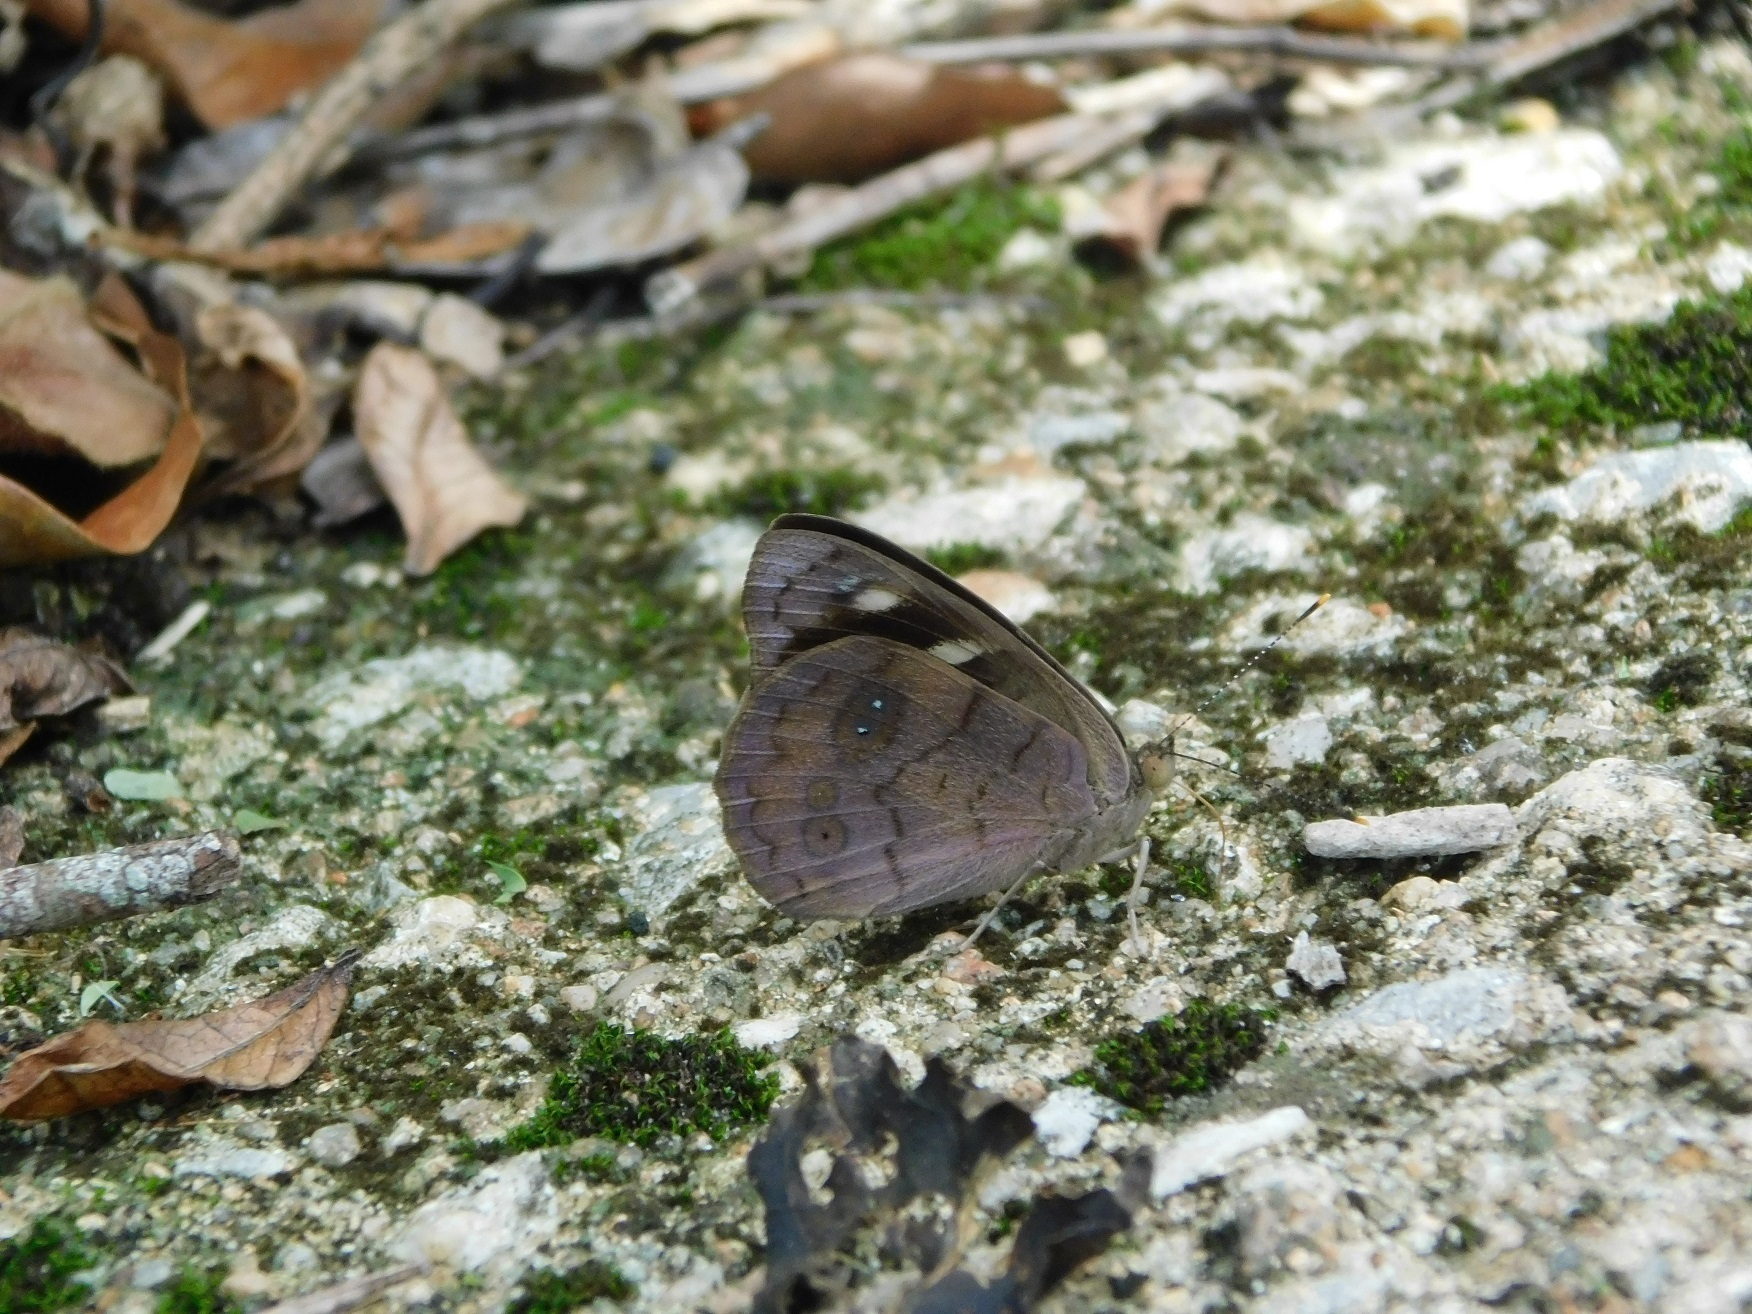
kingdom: Animalia
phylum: Arthropoda
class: Insecta
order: Lepidoptera
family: Nymphalidae
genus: Eunica
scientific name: Eunica monima
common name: Dingy purplewing
